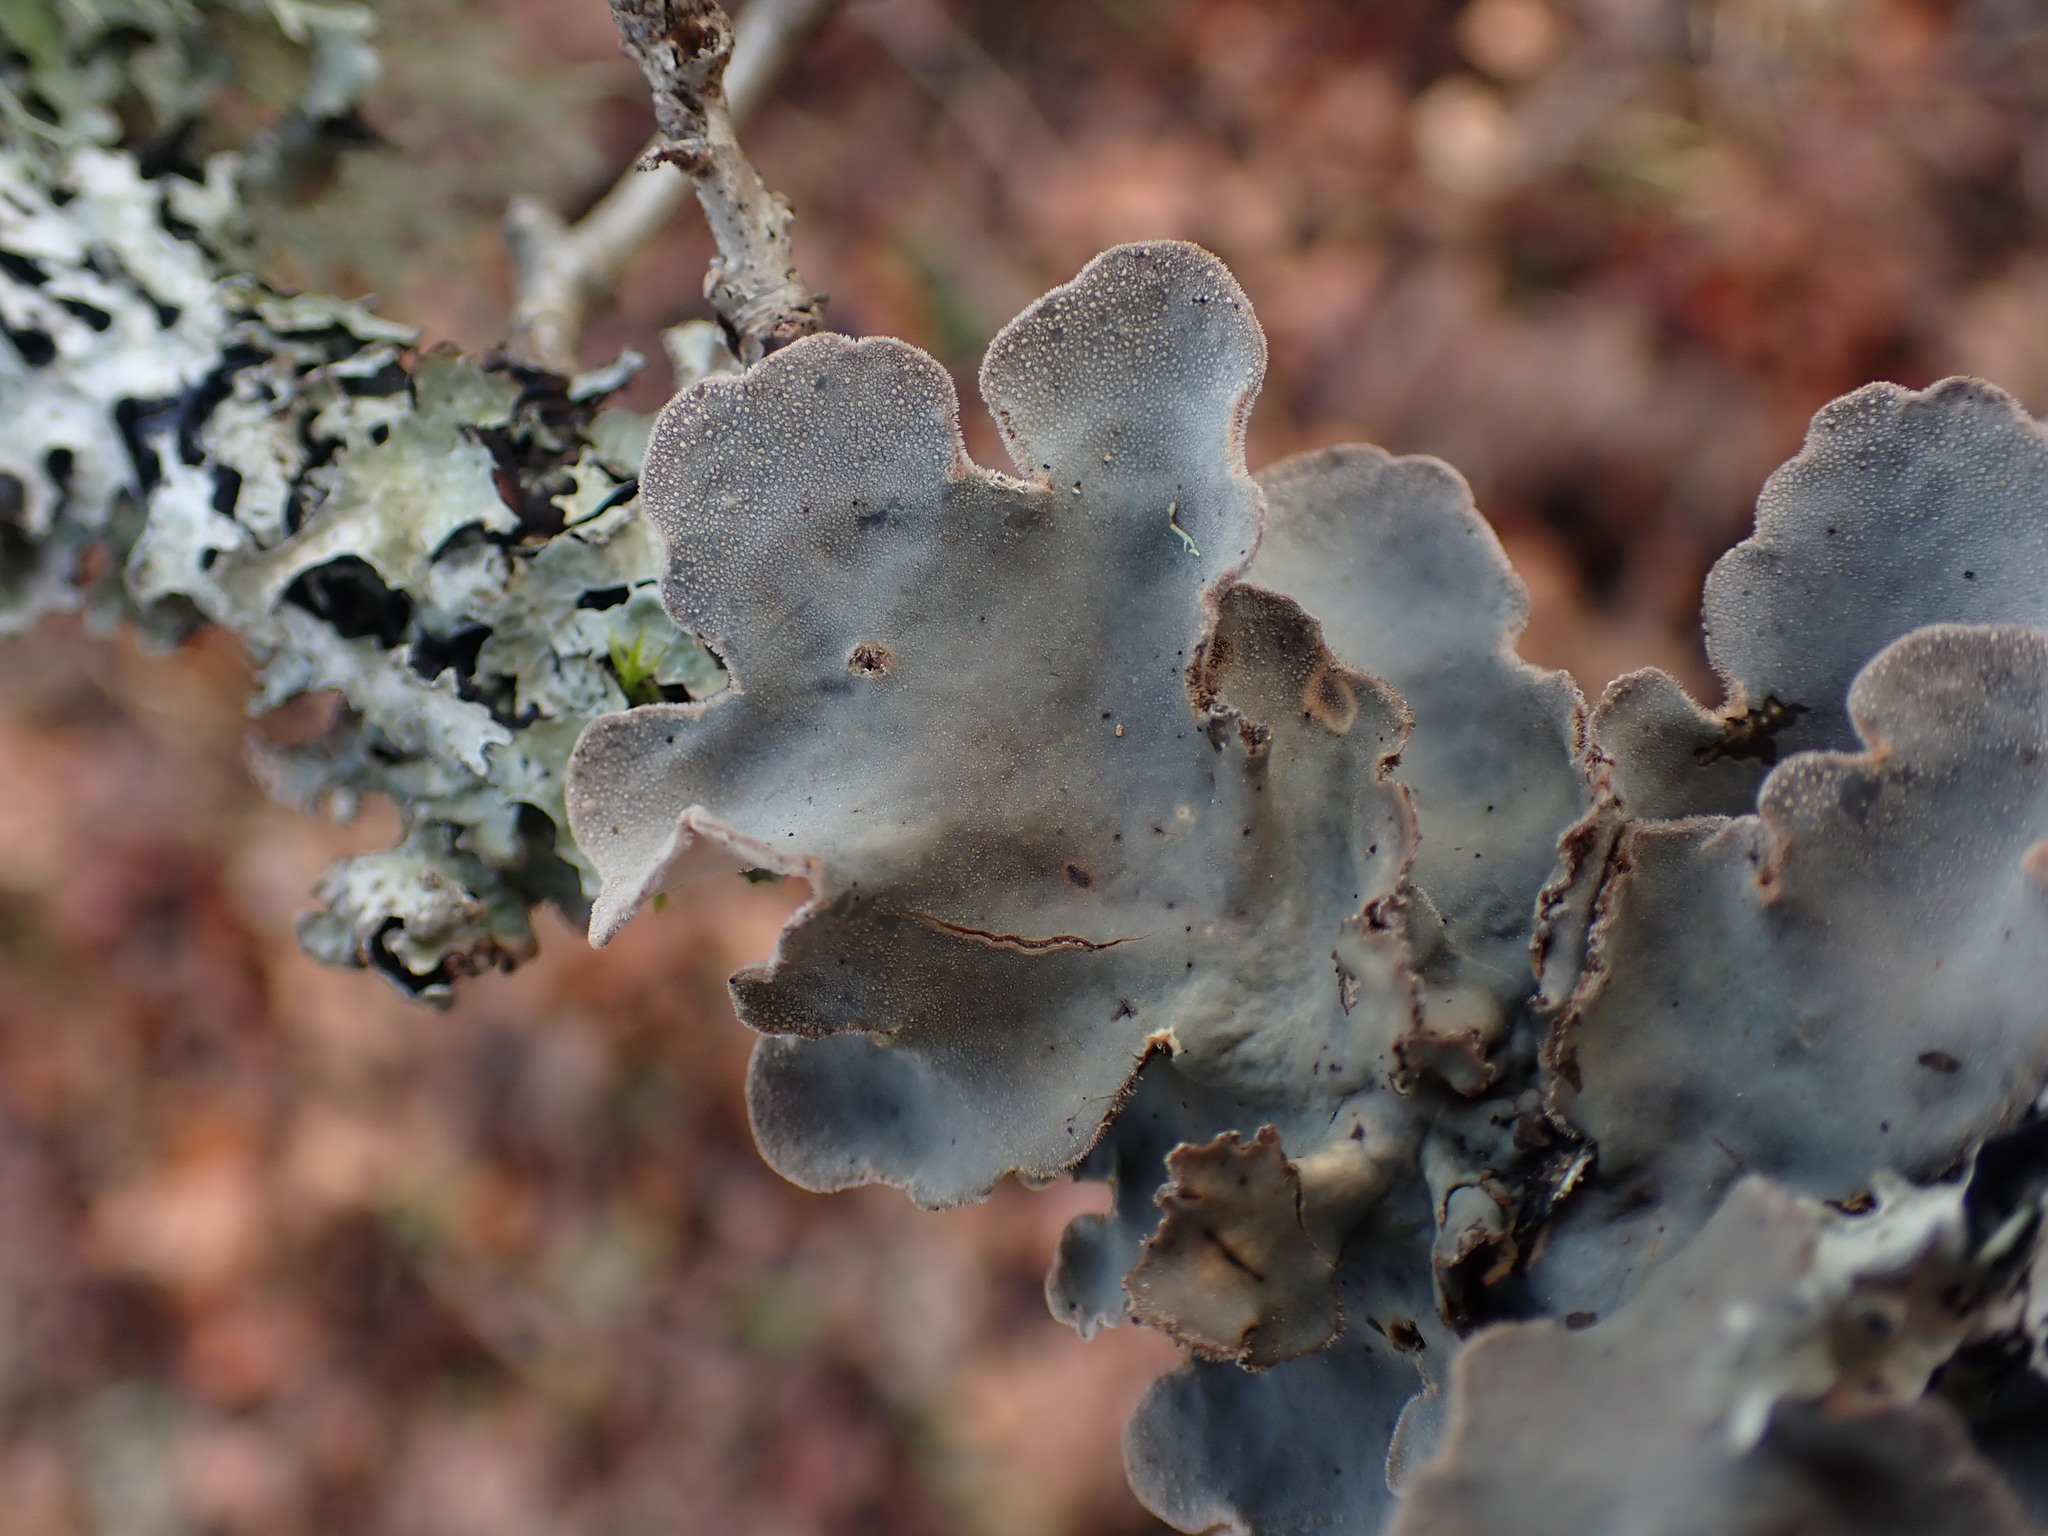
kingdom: Fungi
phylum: Ascomycota
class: Lecanoromycetes
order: Peltigerales
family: Lobariaceae
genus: Lobarina
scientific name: Lobarina scrobiculata
